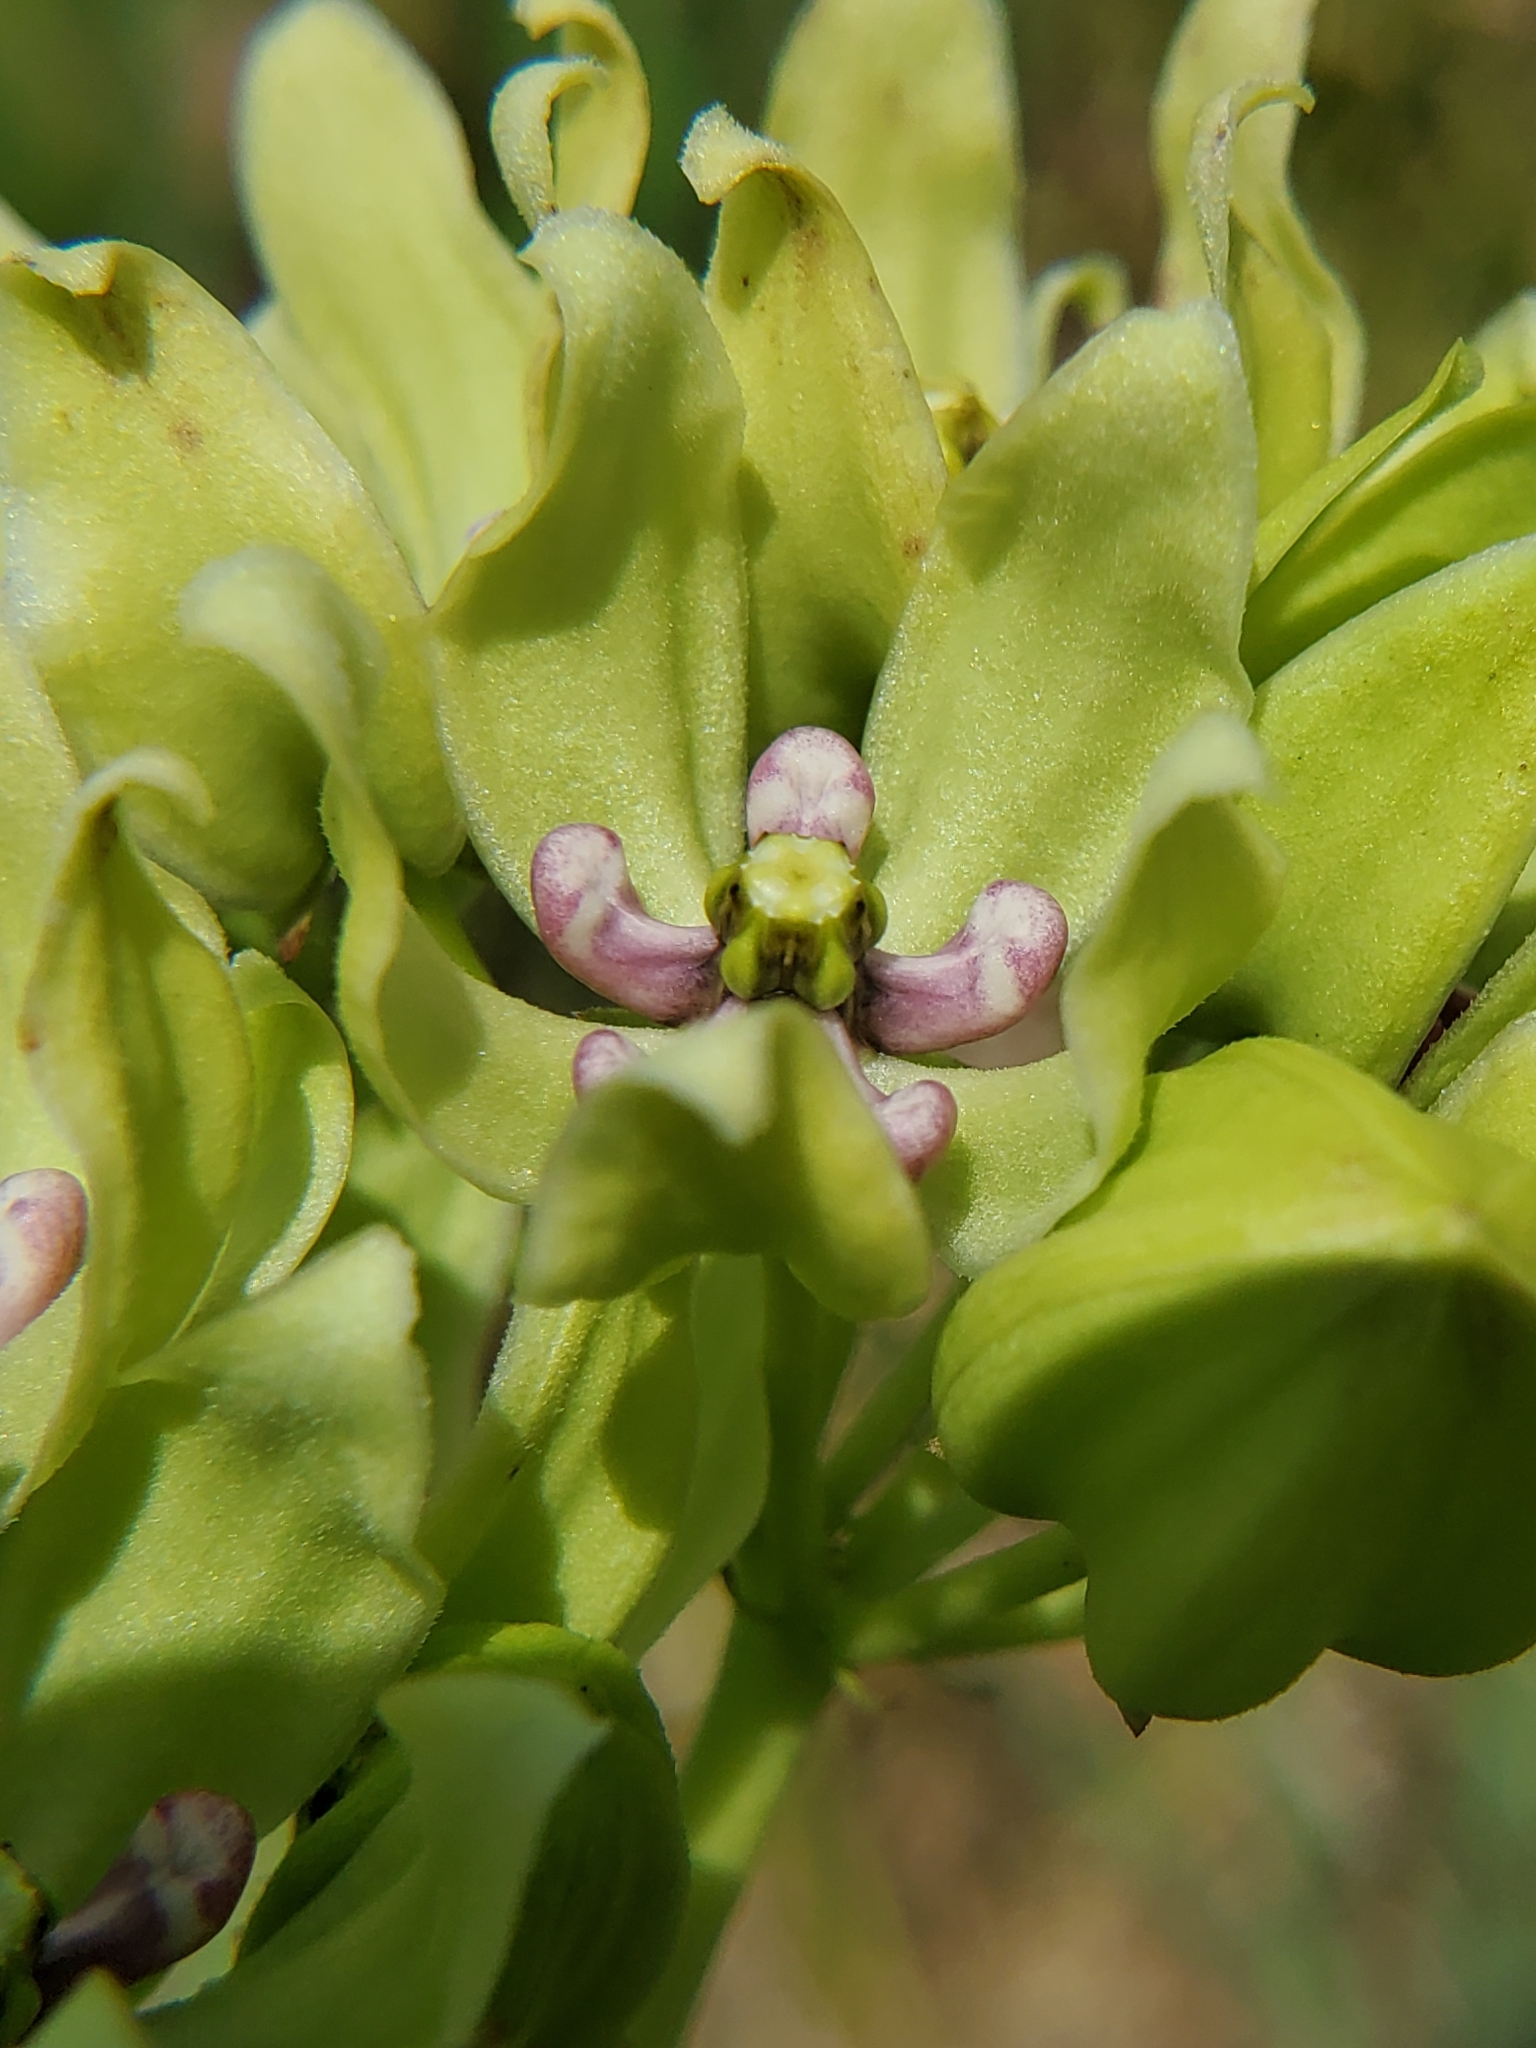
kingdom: Plantae
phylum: Tracheophyta
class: Magnoliopsida
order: Gentianales
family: Apocynaceae
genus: Asclepias
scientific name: Asclepias viridis
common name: Antelope-horns
